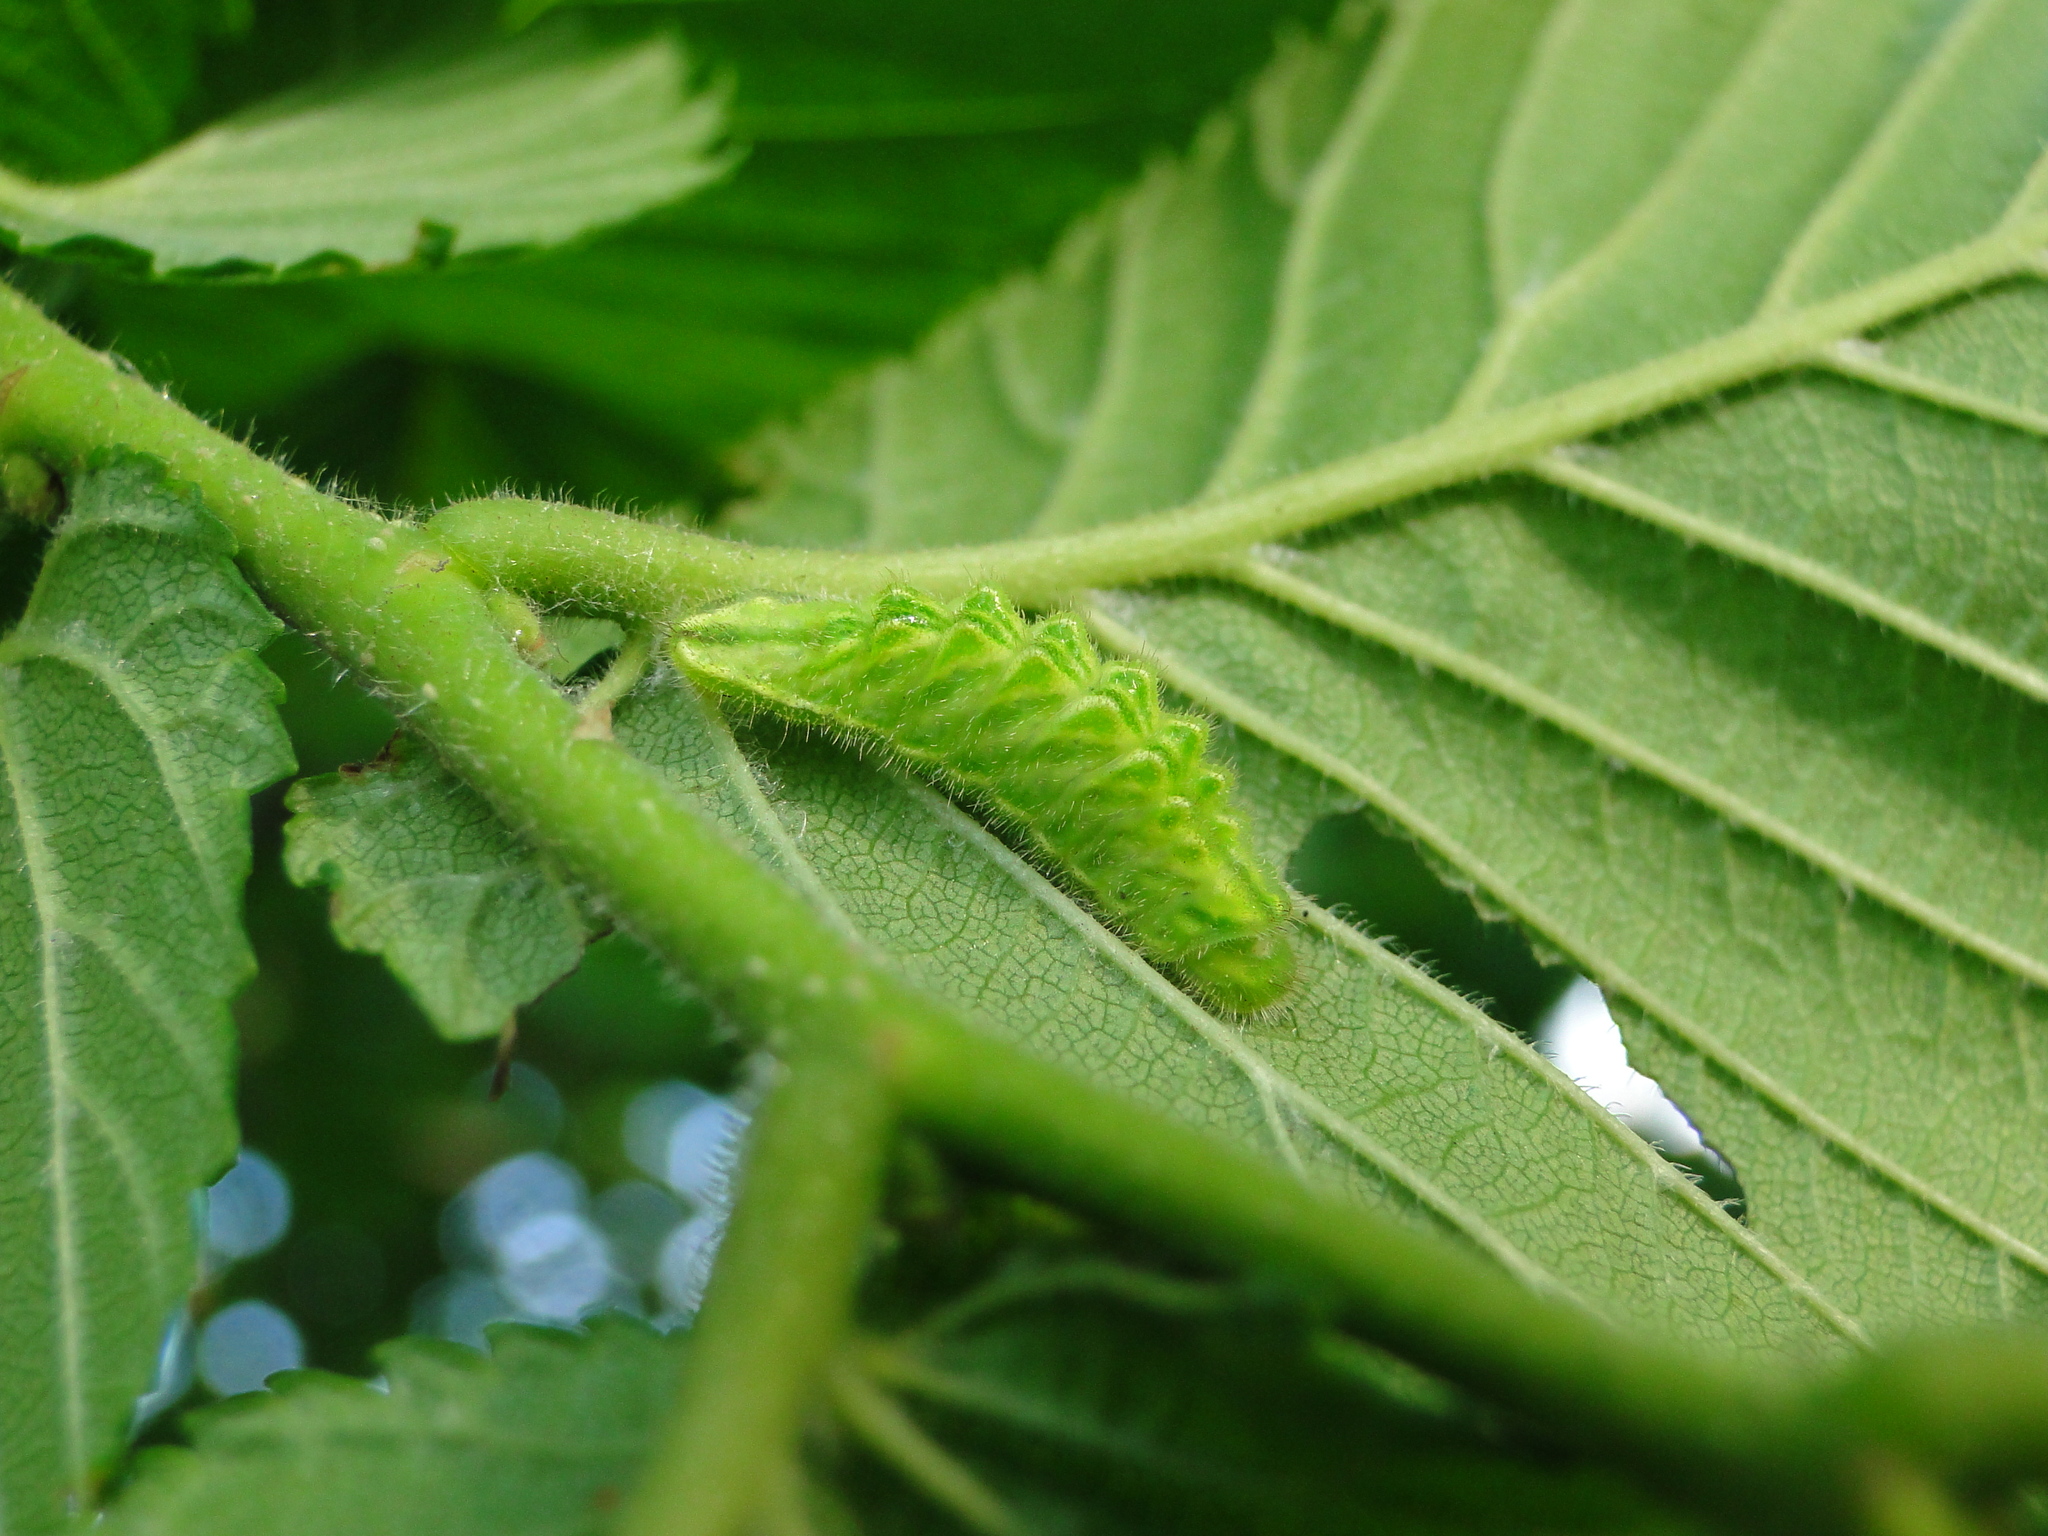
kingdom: Animalia
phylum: Arthropoda
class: Insecta
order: Lepidoptera
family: Lycaenidae
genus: Satyrium
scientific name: Satyrium w-album
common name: White-letter hairstreak
